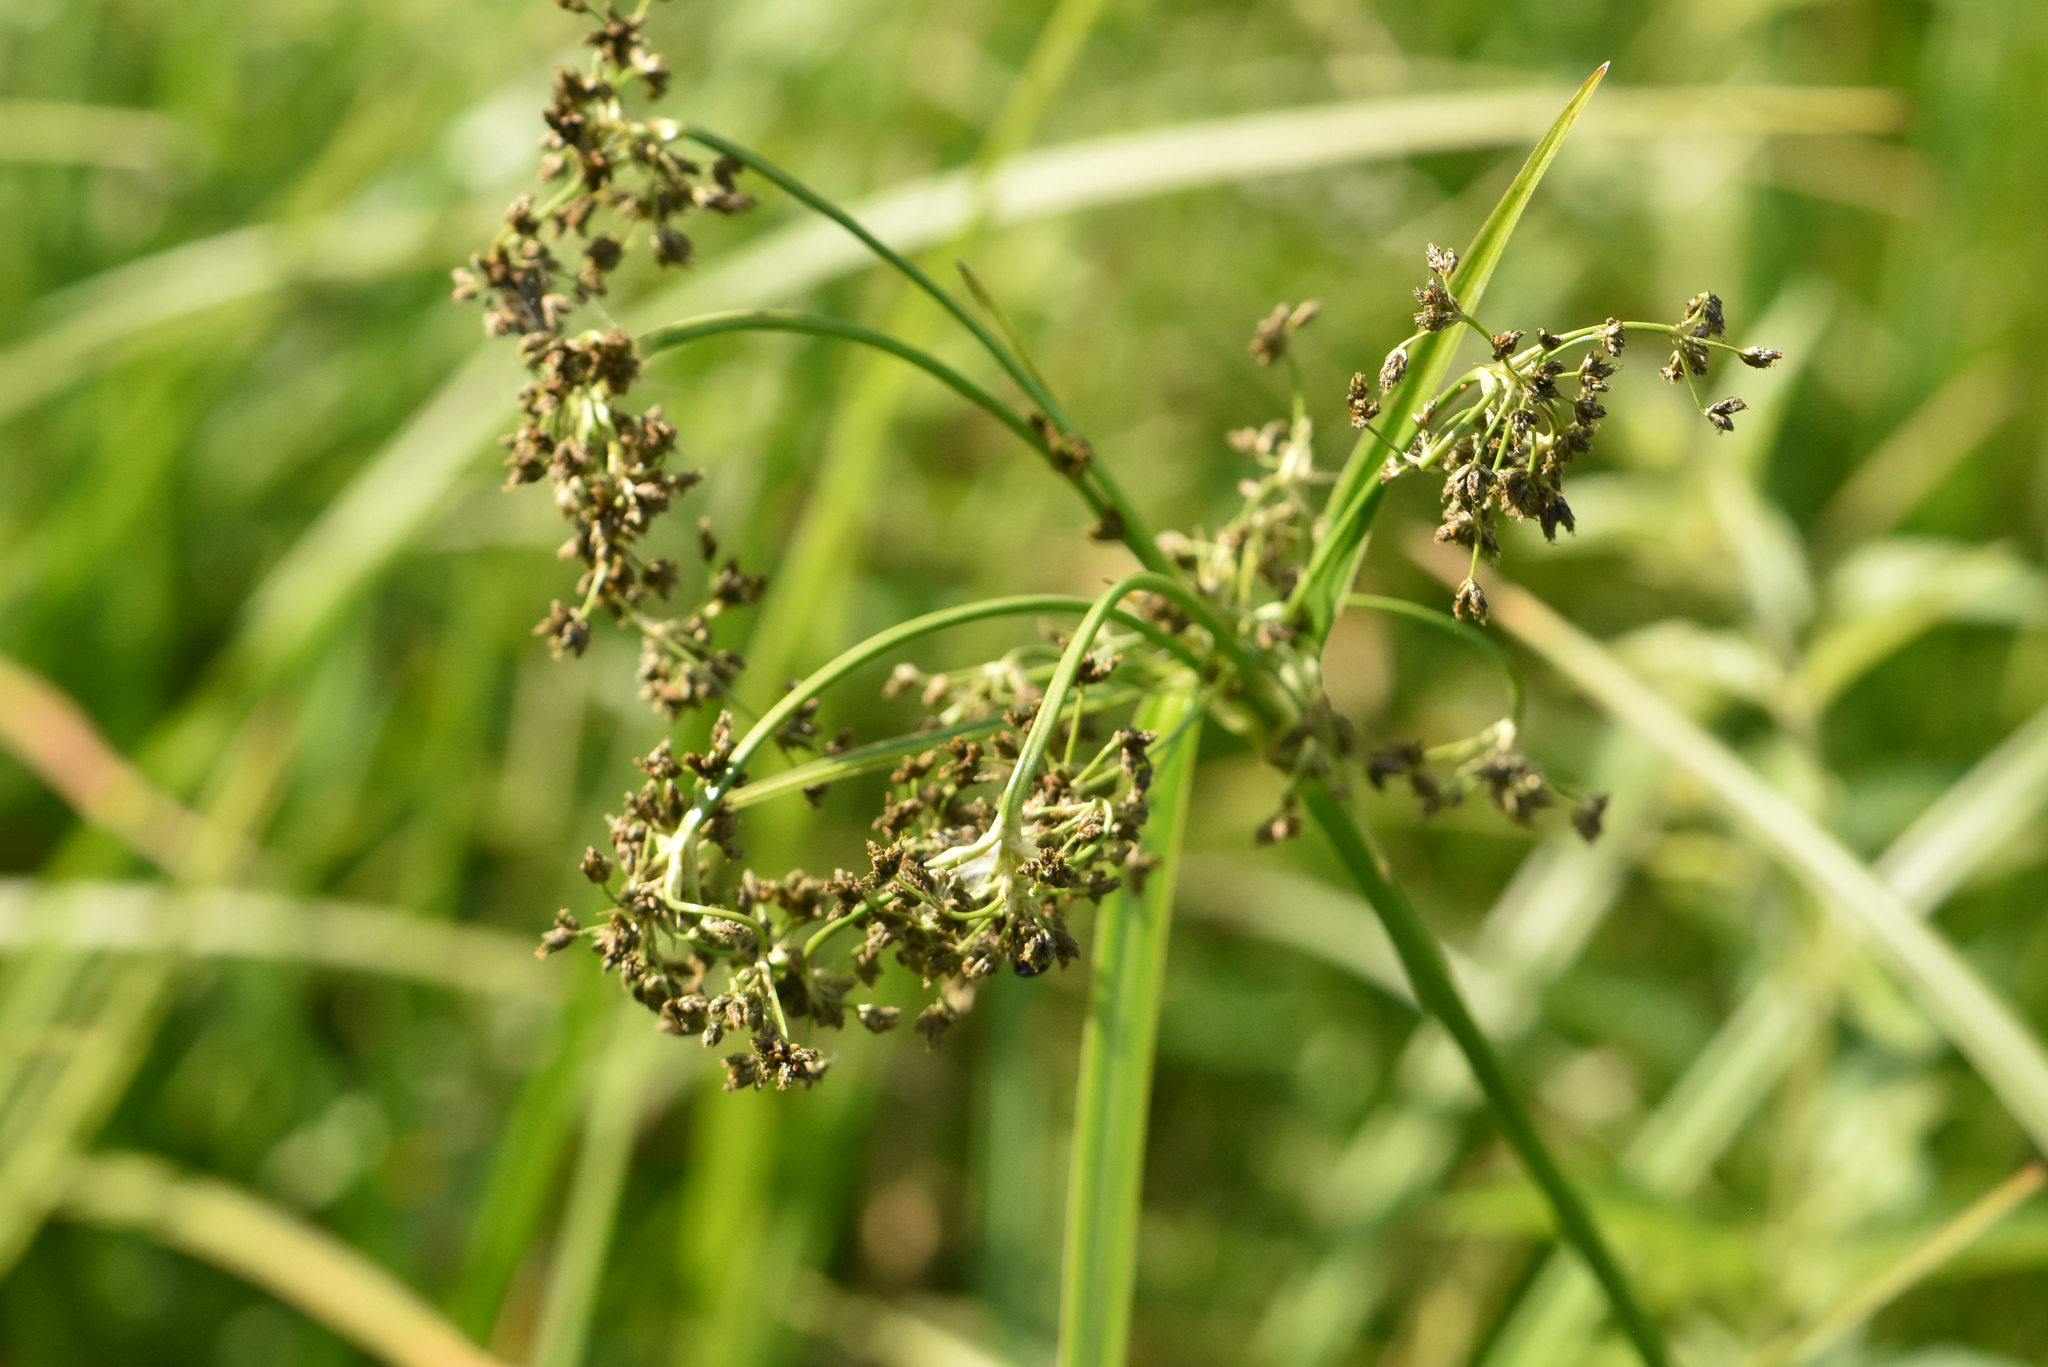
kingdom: Plantae
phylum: Tracheophyta
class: Liliopsida
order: Poales
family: Cyperaceae
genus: Scirpus
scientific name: Scirpus sylvaticus
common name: Wood club-rush
